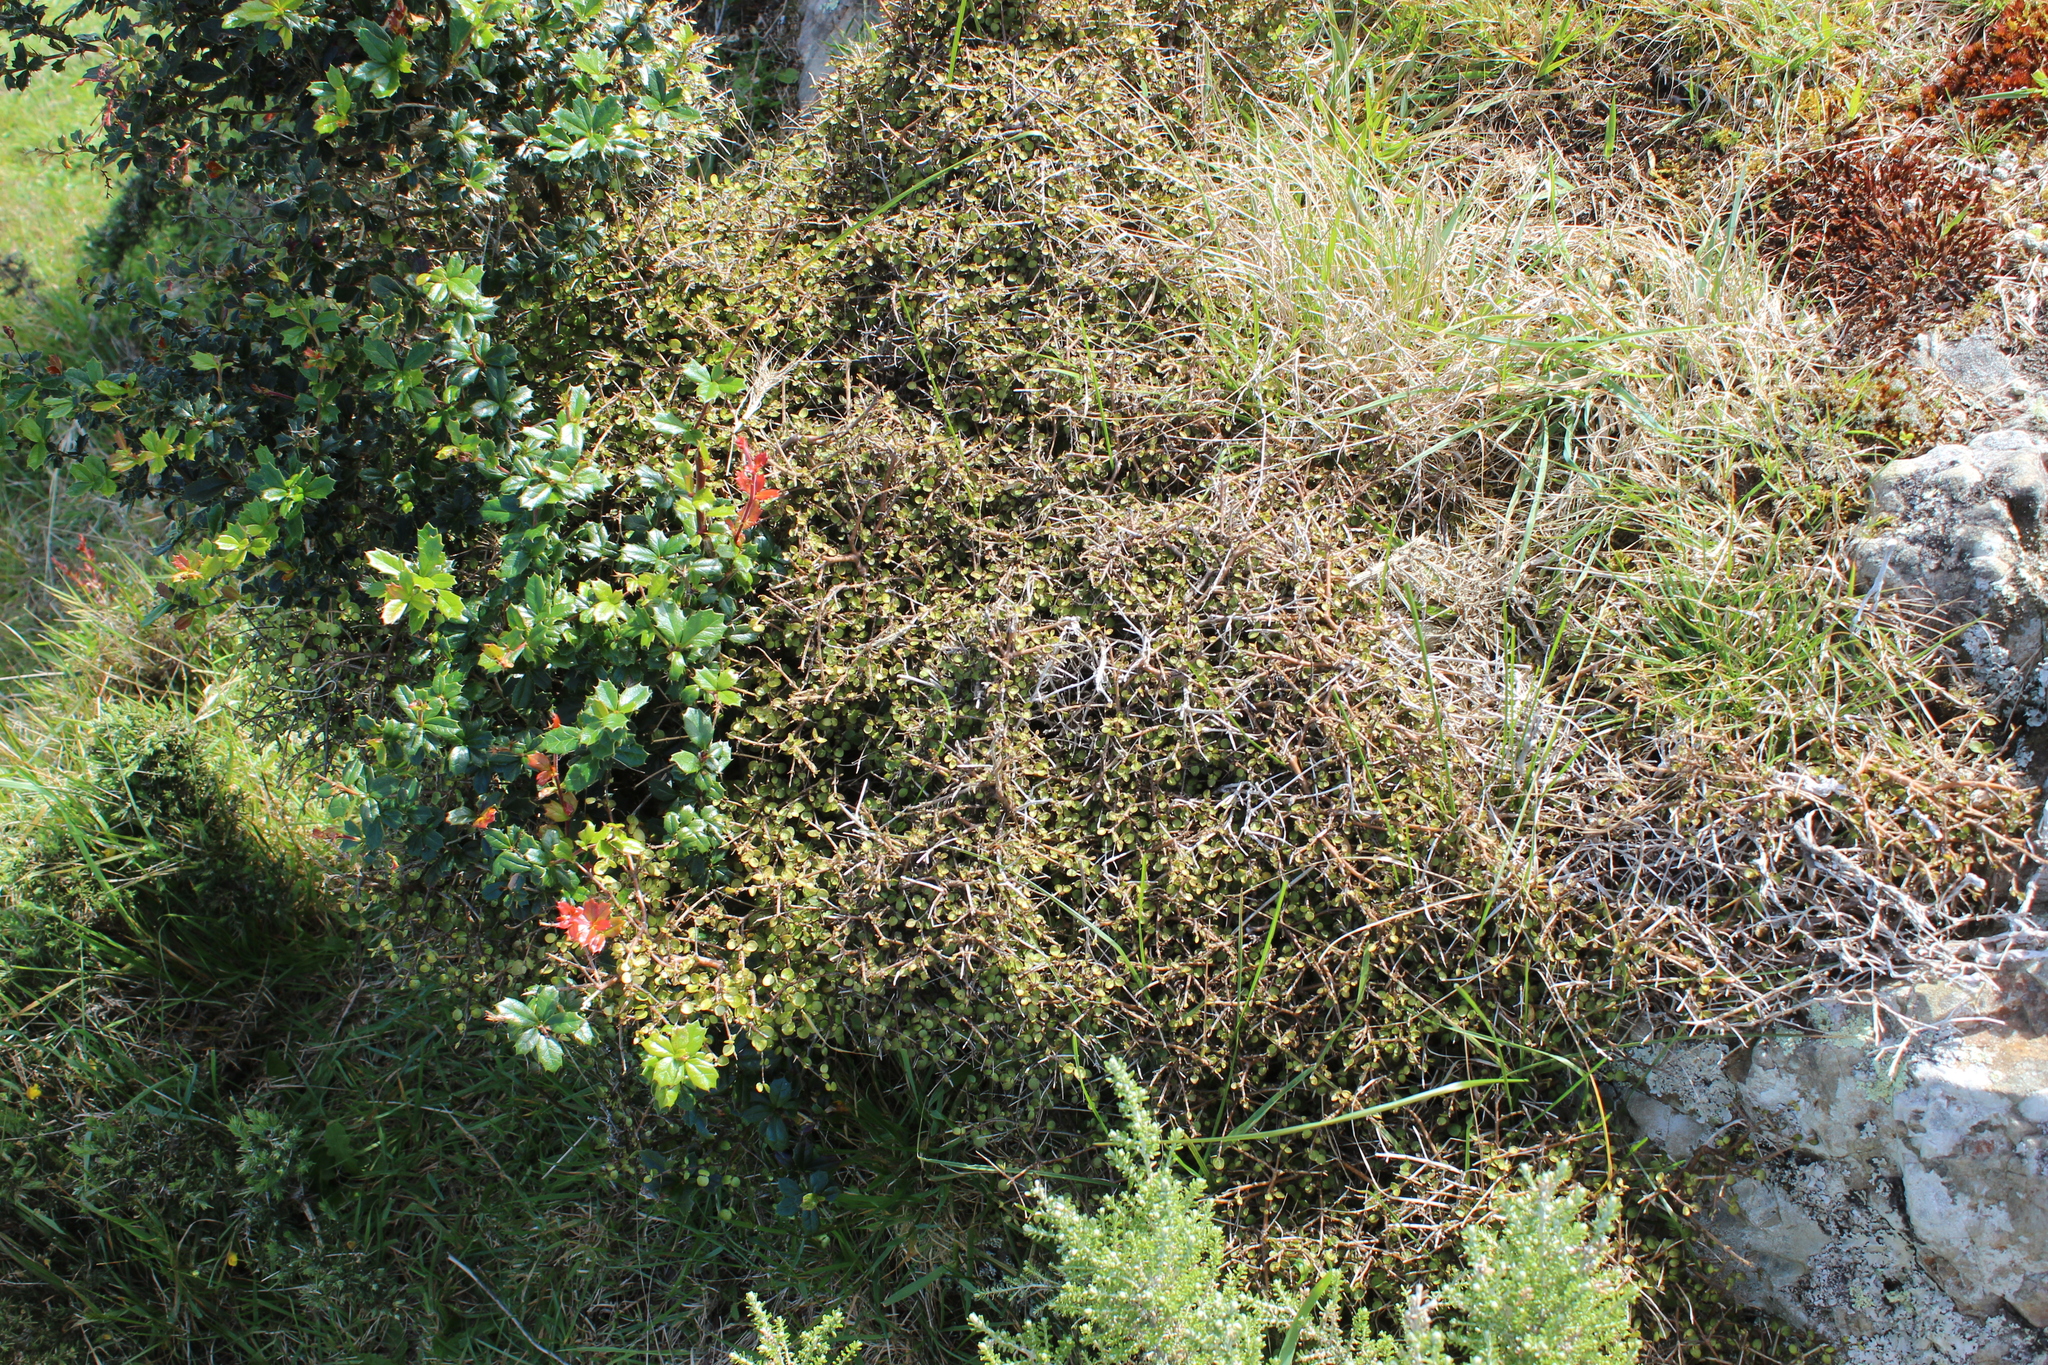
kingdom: Plantae
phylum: Tracheophyta
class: Magnoliopsida
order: Gentianales
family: Rubiaceae
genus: Coprosma
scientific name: Coprosma rhamnoides
